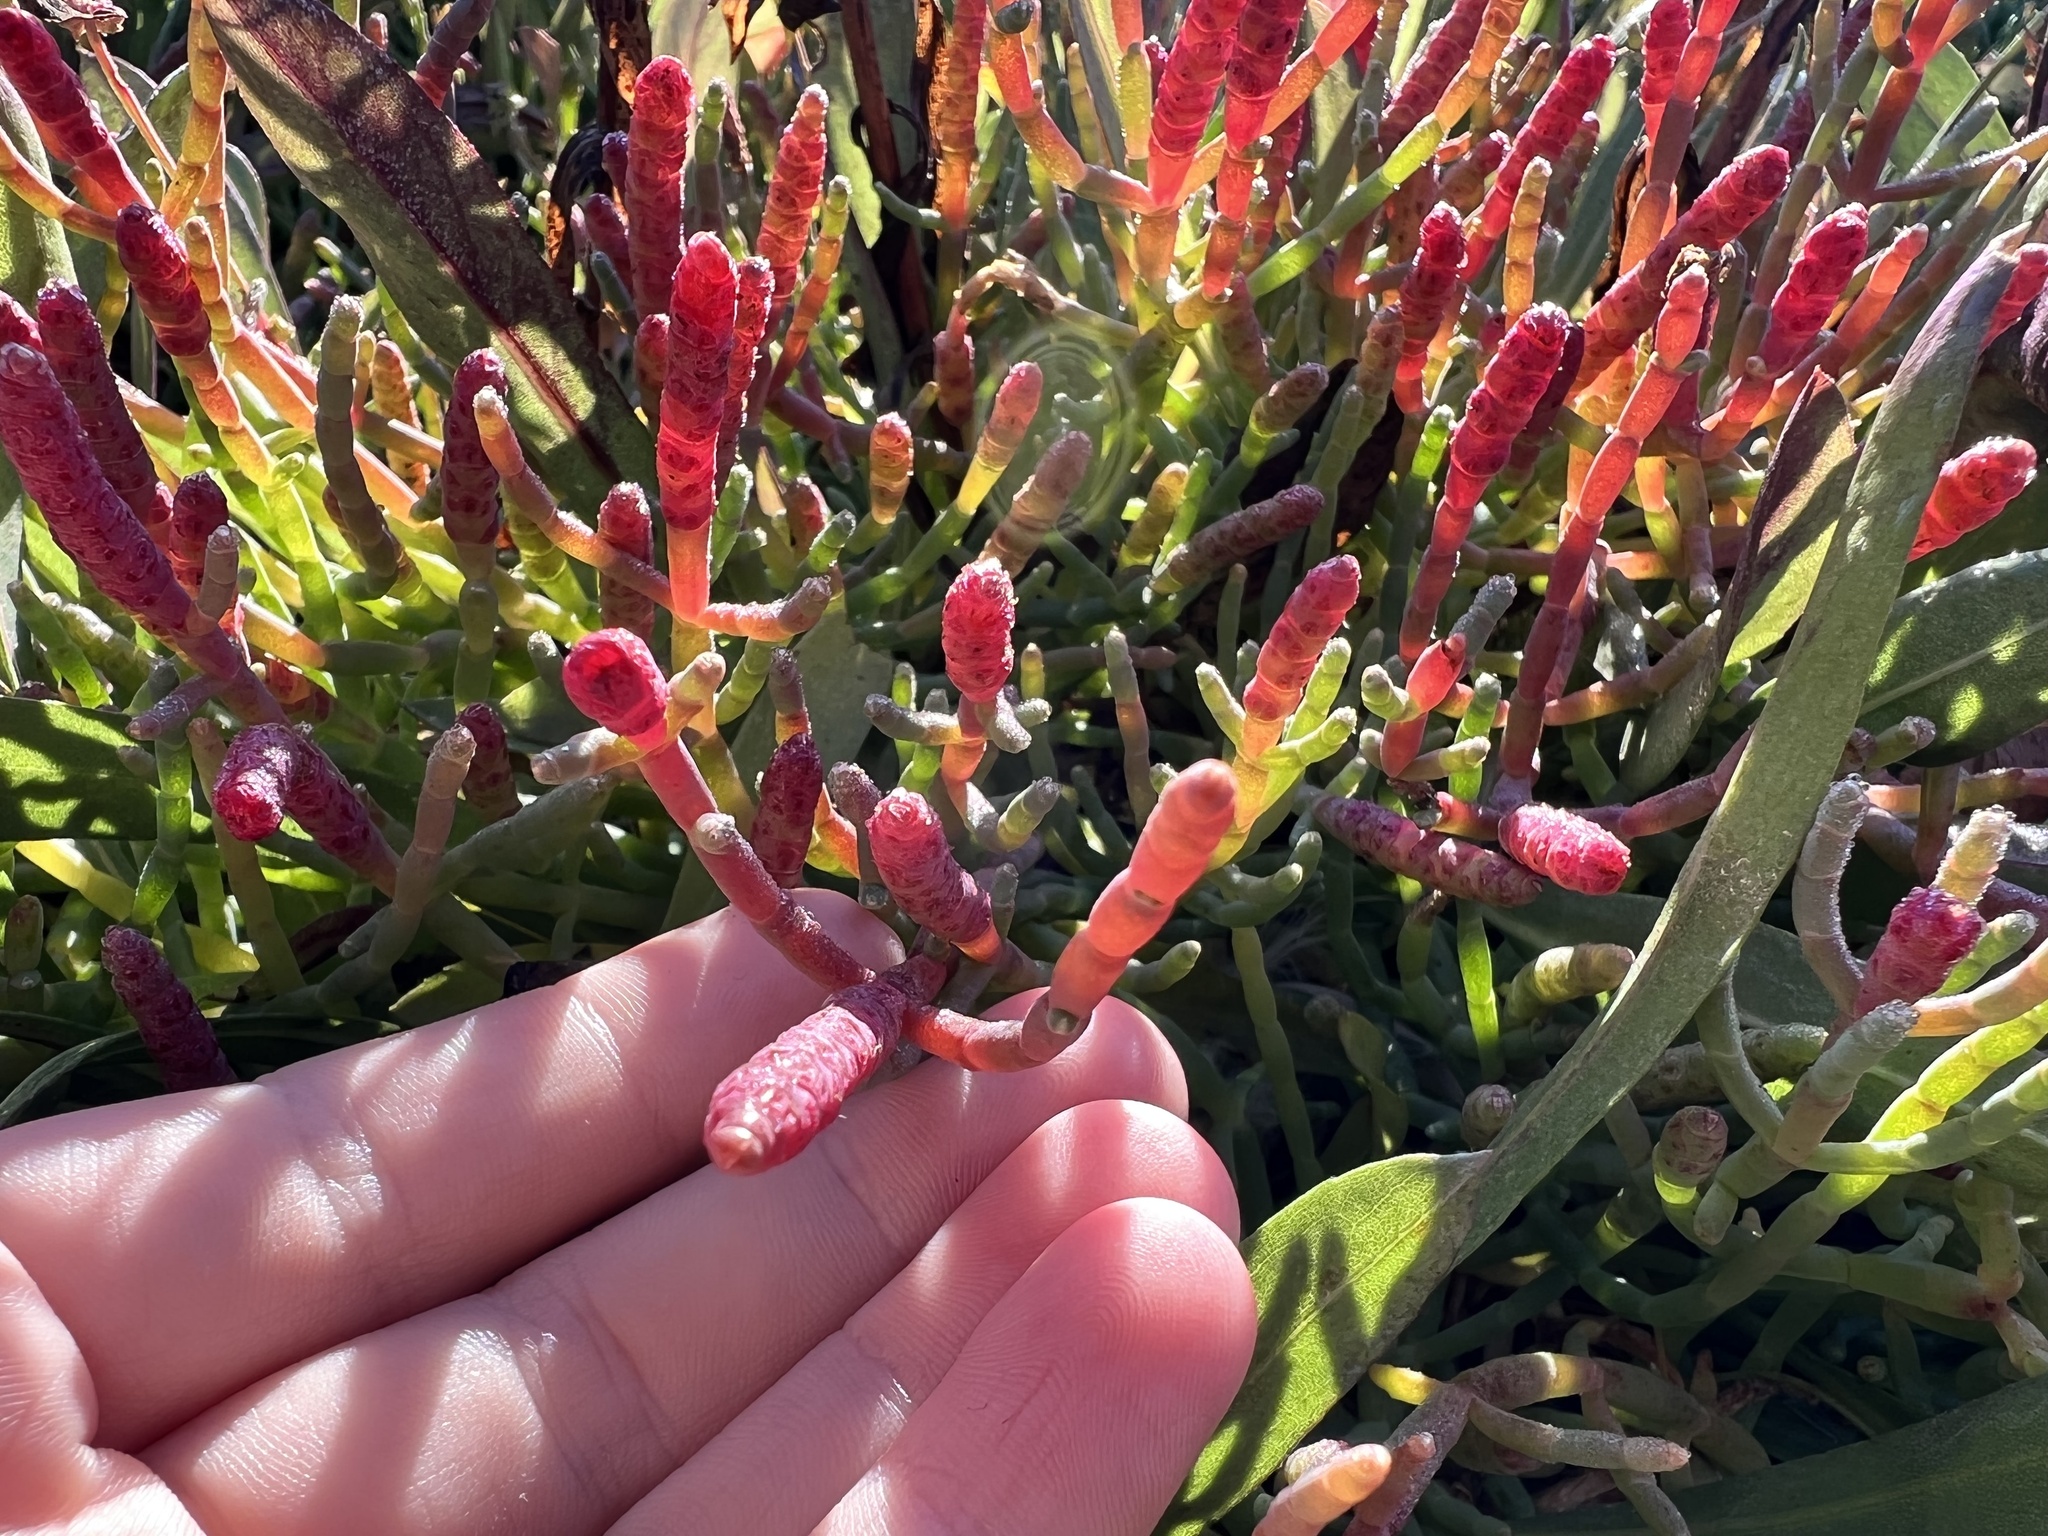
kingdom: Plantae
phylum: Tracheophyta
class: Magnoliopsida
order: Caryophyllales
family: Amaranthaceae
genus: Salicornia
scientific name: Salicornia pacifica
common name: Pacific glasswort
